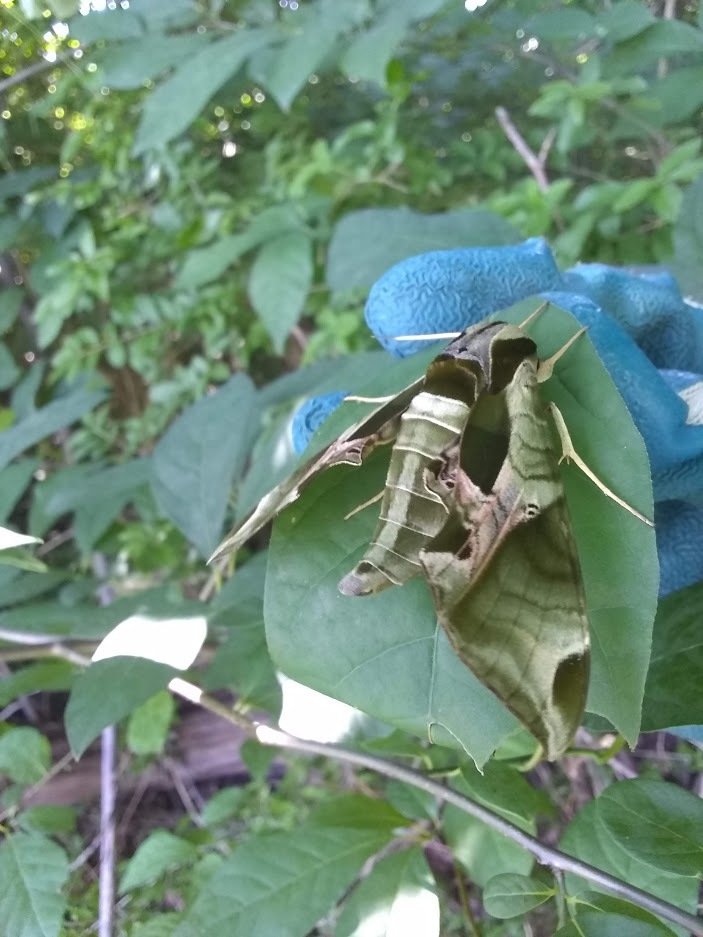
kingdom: Animalia
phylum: Arthropoda
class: Insecta
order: Lepidoptera
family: Sphingidae
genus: Eumorpha
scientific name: Eumorpha pandorus
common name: Pandora sphinx
